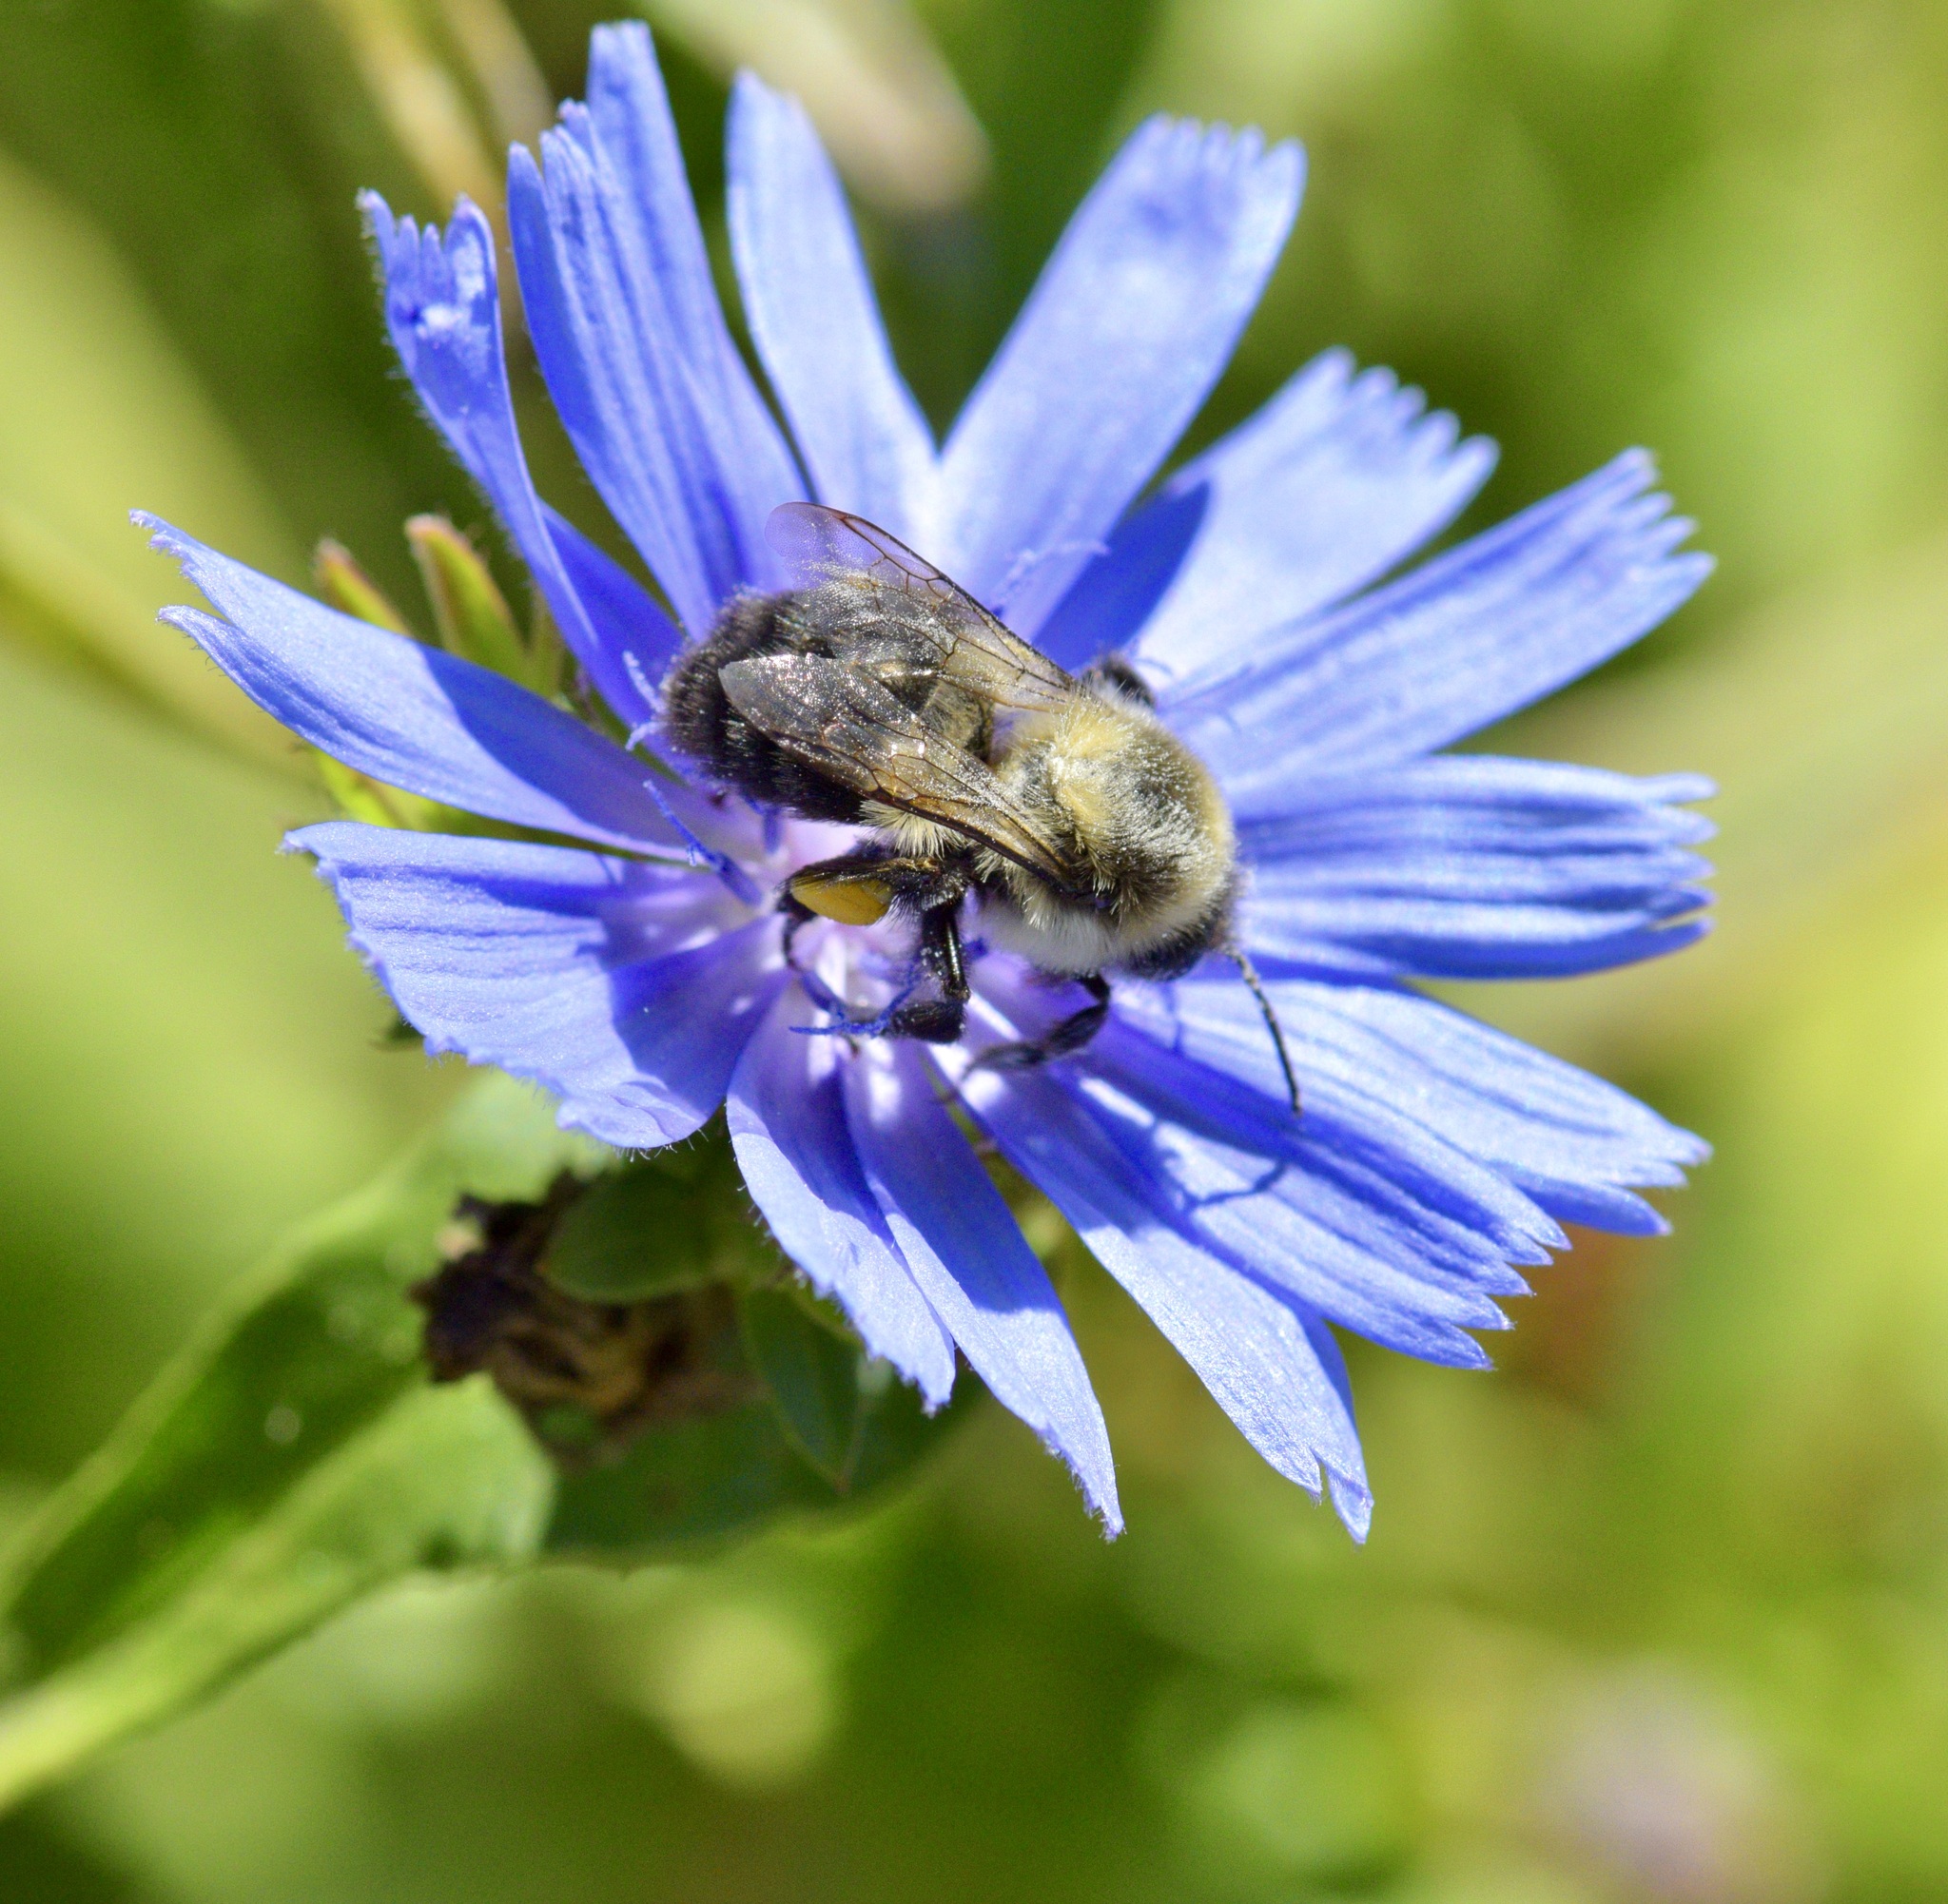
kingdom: Animalia
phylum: Arthropoda
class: Insecta
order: Hymenoptera
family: Apidae
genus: Bombus
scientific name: Bombus impatiens
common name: Common eastern bumble bee
